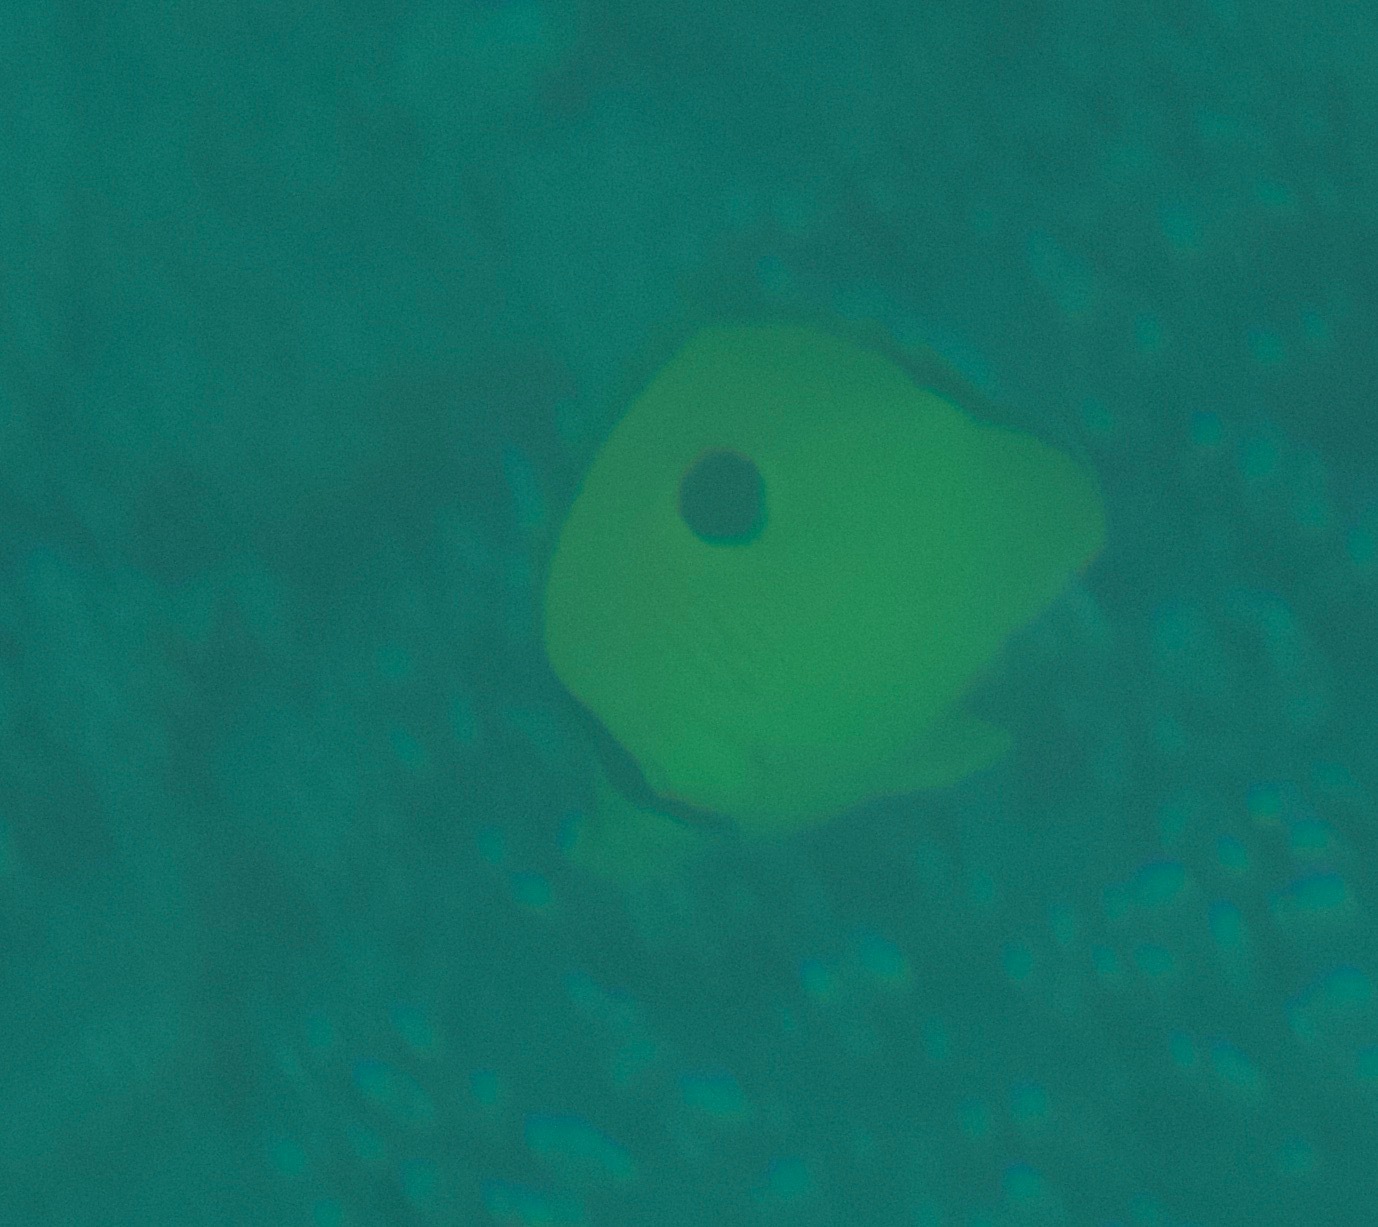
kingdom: Animalia
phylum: Chordata
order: Perciformes
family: Chaetodontidae
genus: Chaetodon
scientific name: Chaetodon interruptus
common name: Yellow teardrop butterflyfish
